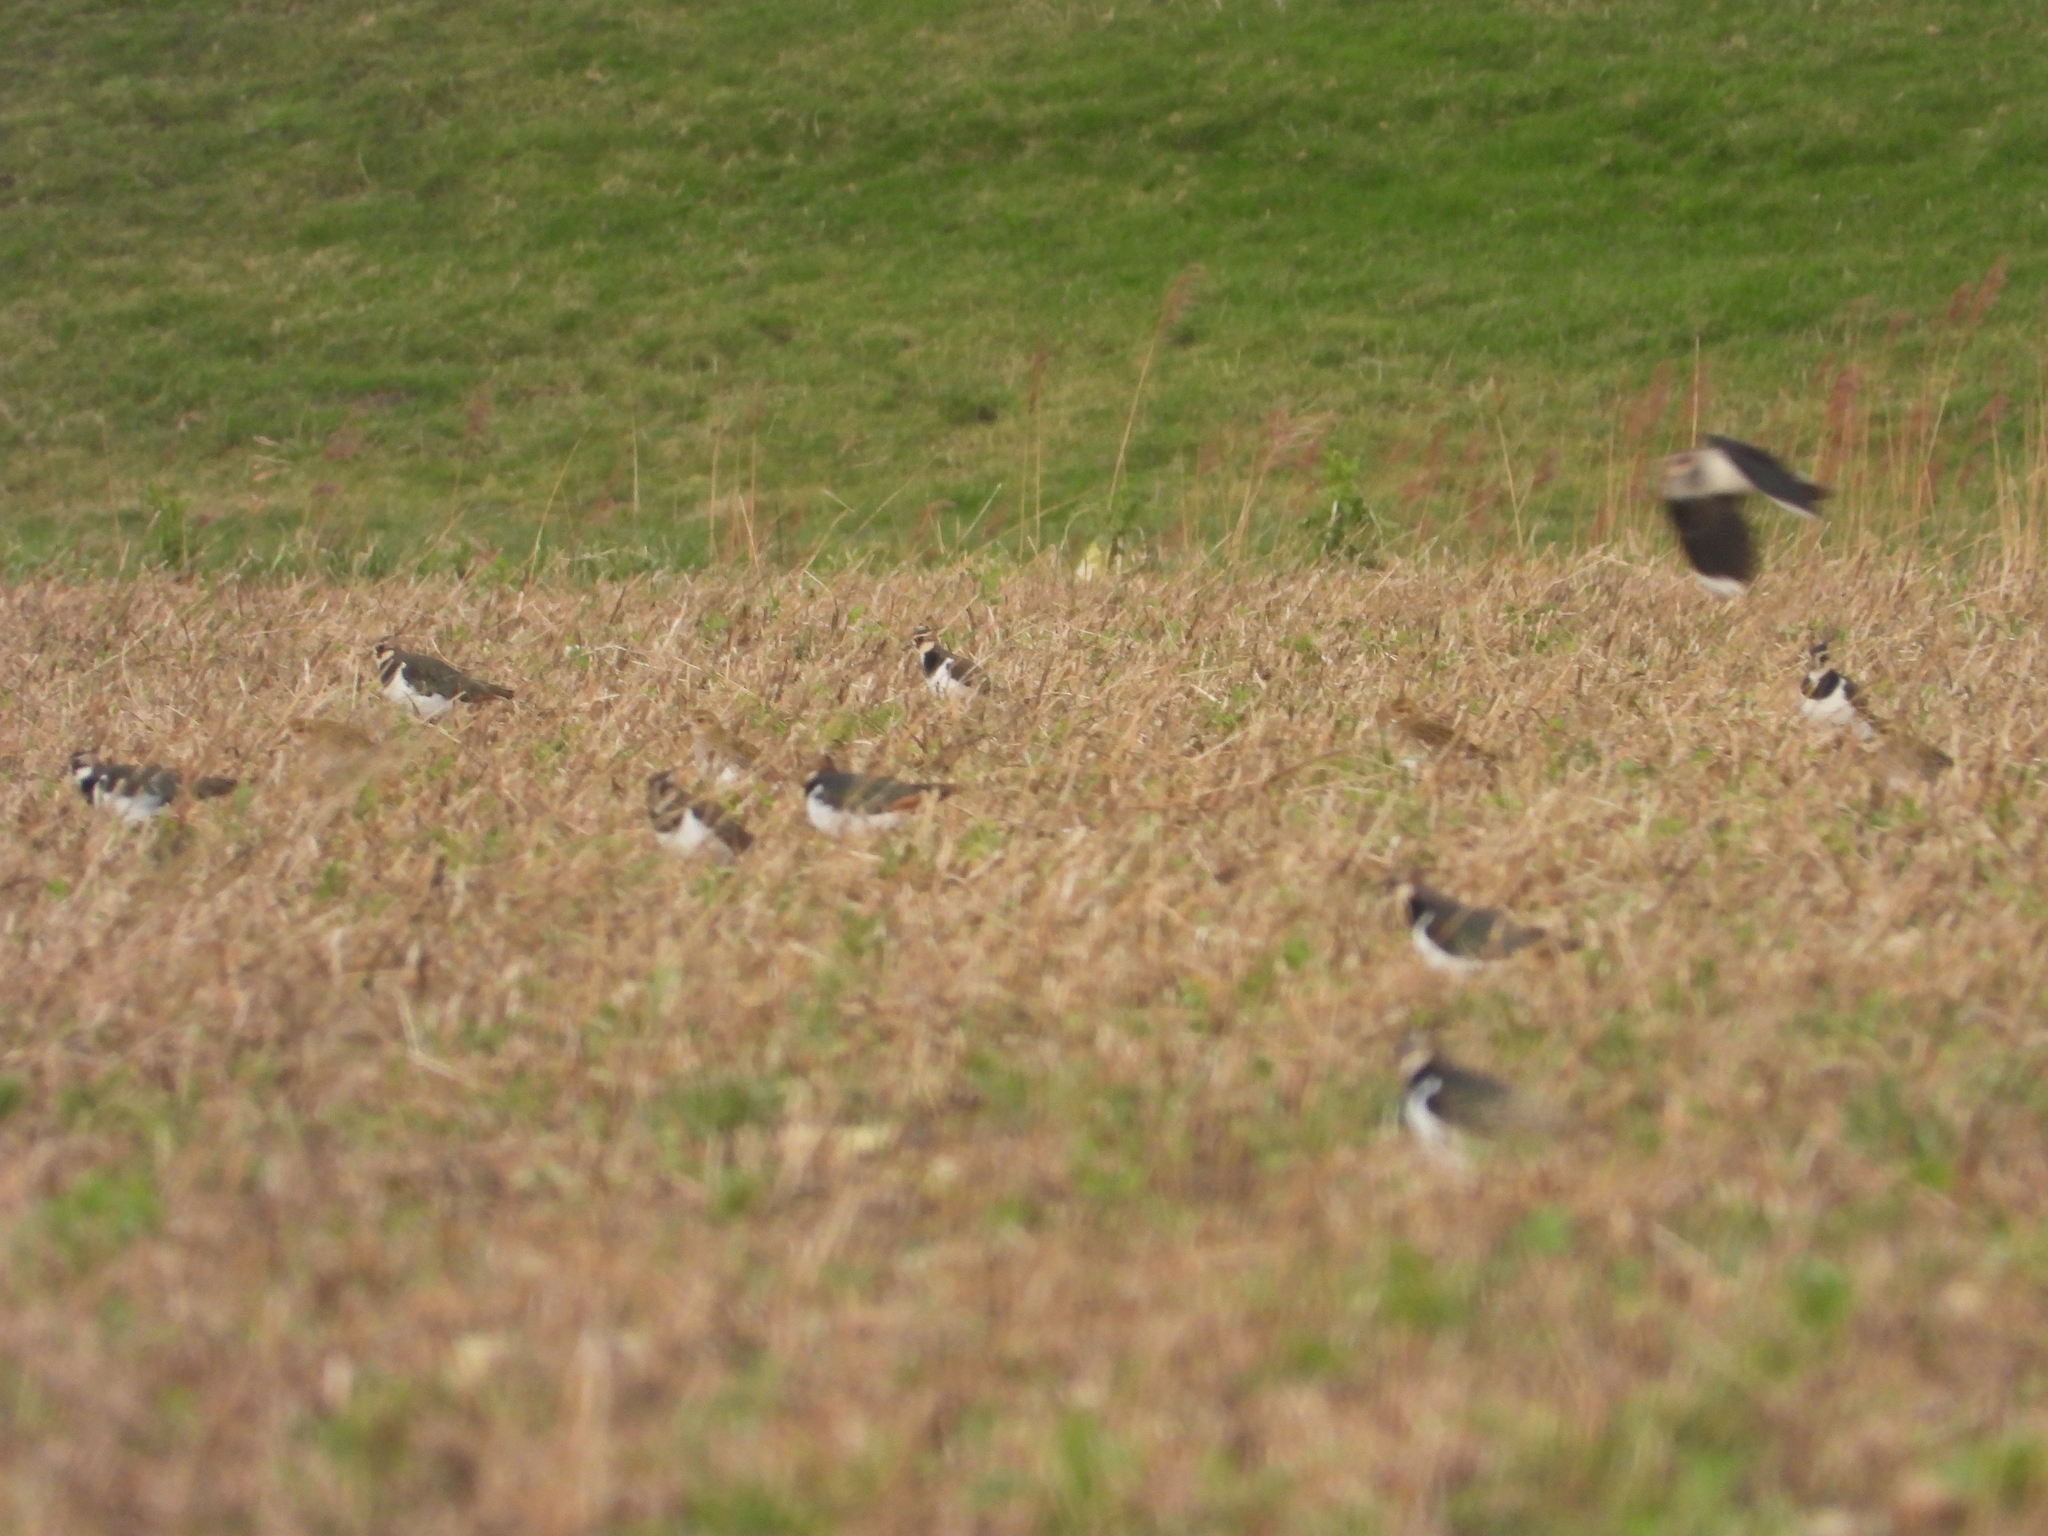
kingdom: Animalia
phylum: Chordata
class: Aves
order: Charadriiformes
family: Charadriidae
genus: Vanellus
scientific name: Vanellus vanellus
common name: Northern lapwing
